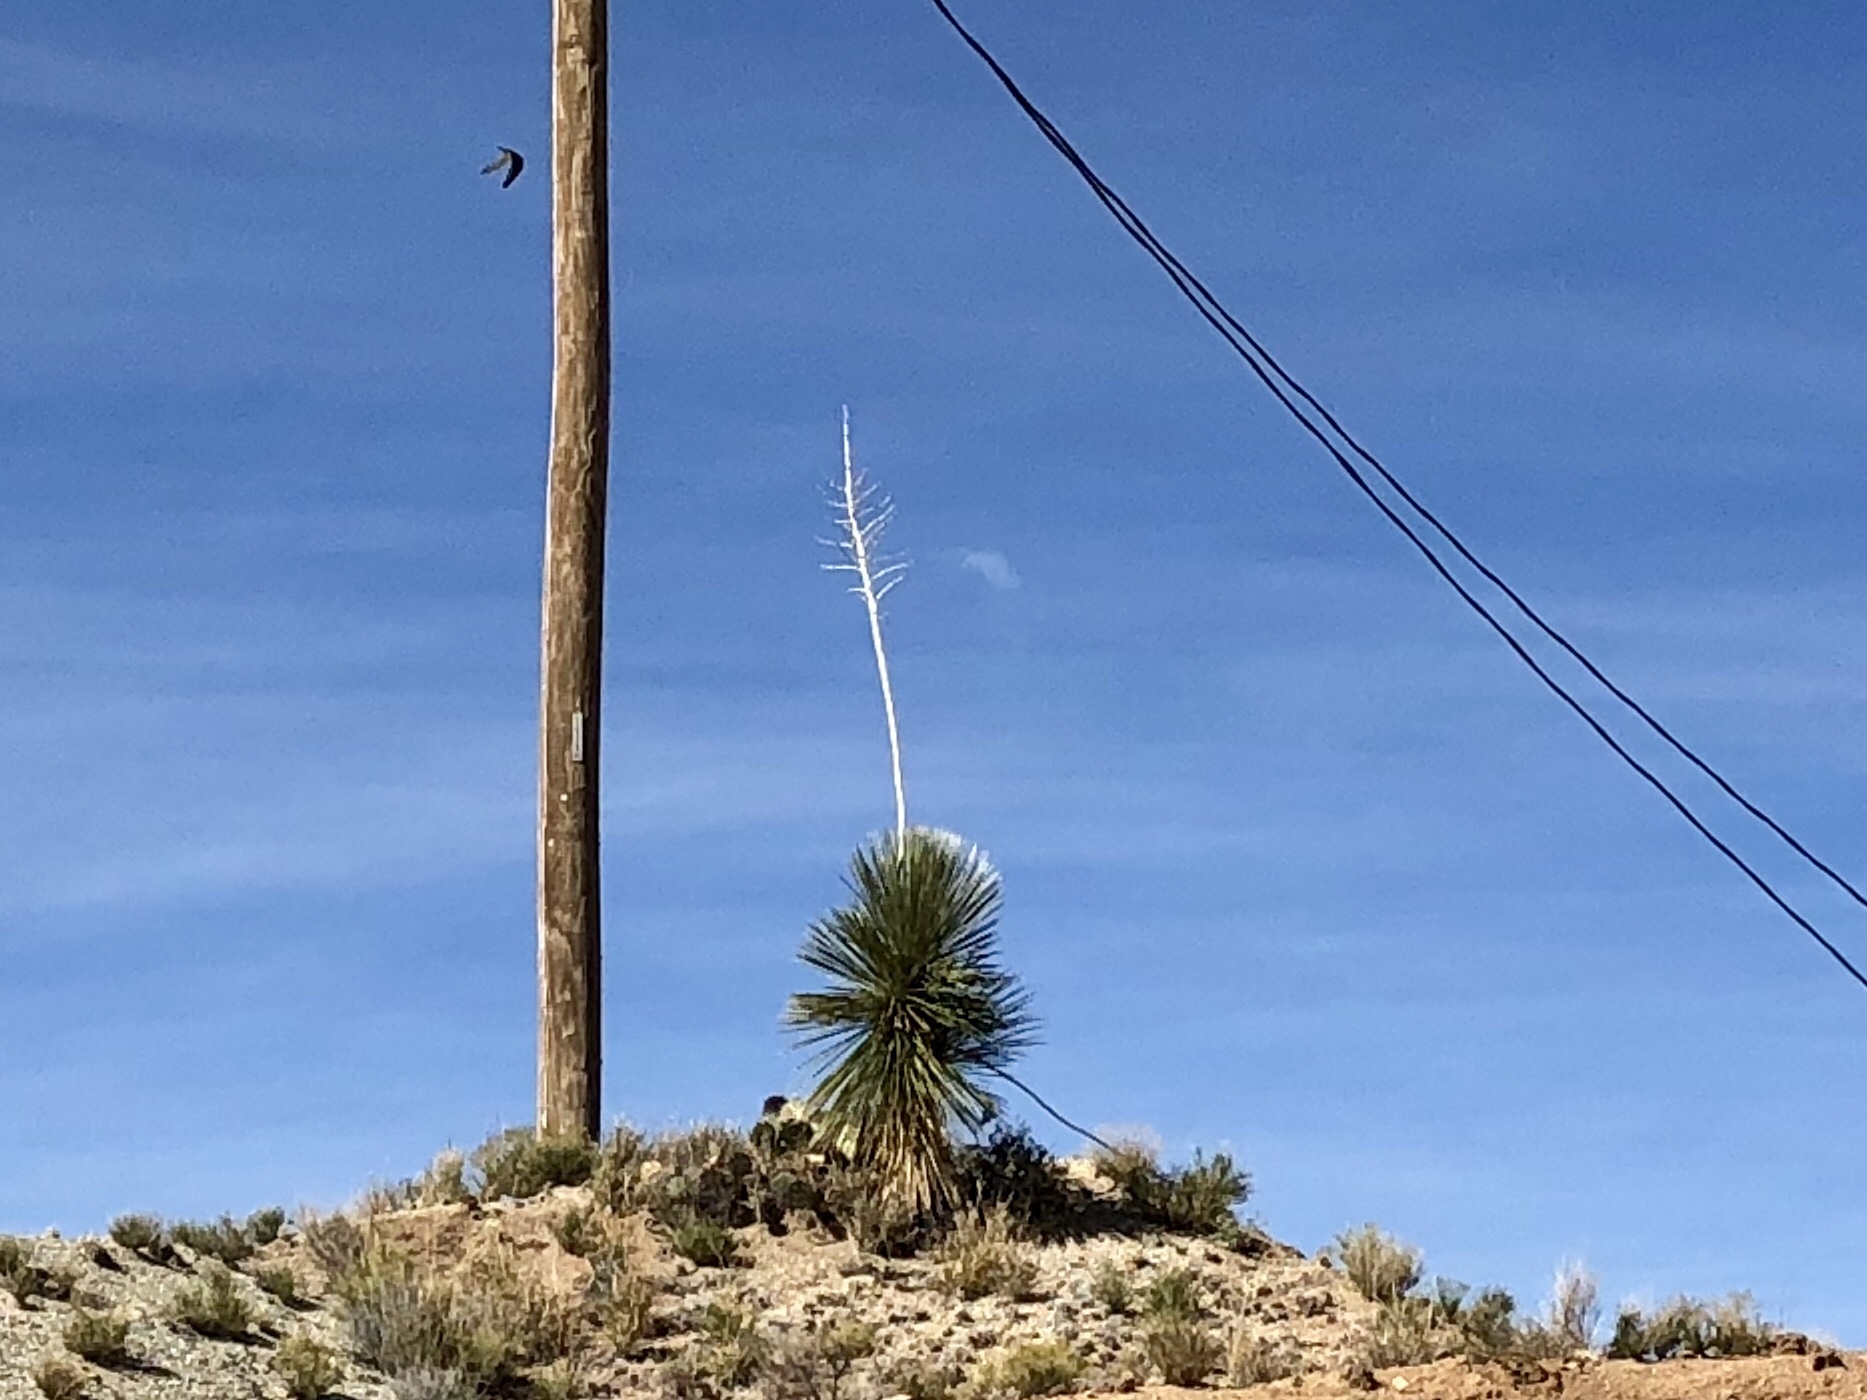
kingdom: Plantae
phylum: Tracheophyta
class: Liliopsida
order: Asparagales
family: Asparagaceae
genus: Yucca
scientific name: Yucca elata
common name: Palmella
